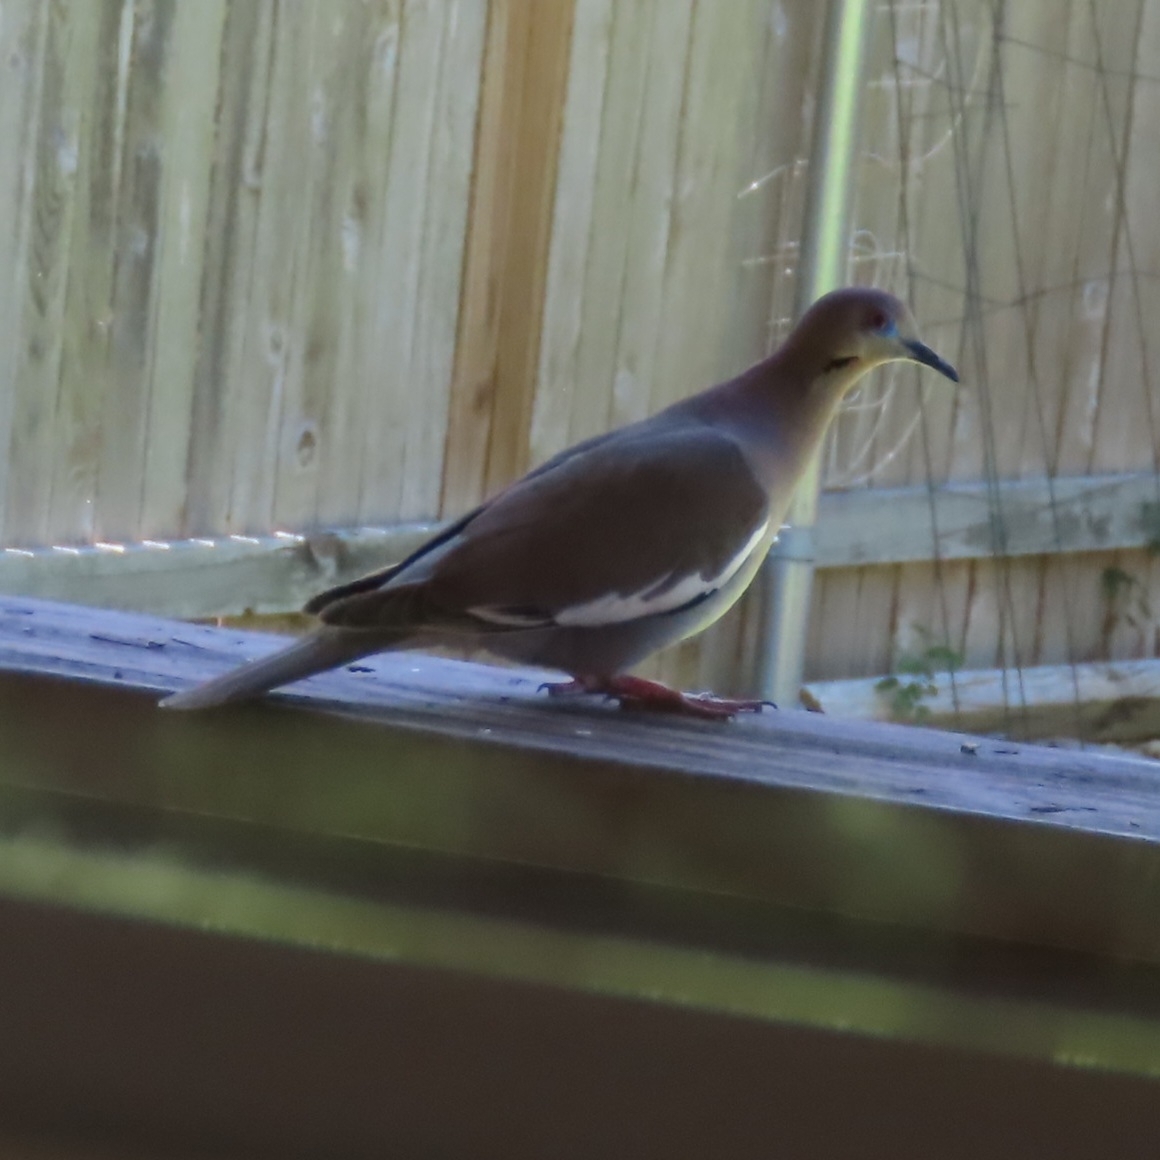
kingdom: Animalia
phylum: Chordata
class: Aves
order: Columbiformes
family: Columbidae
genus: Zenaida
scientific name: Zenaida asiatica
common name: White-winged dove
